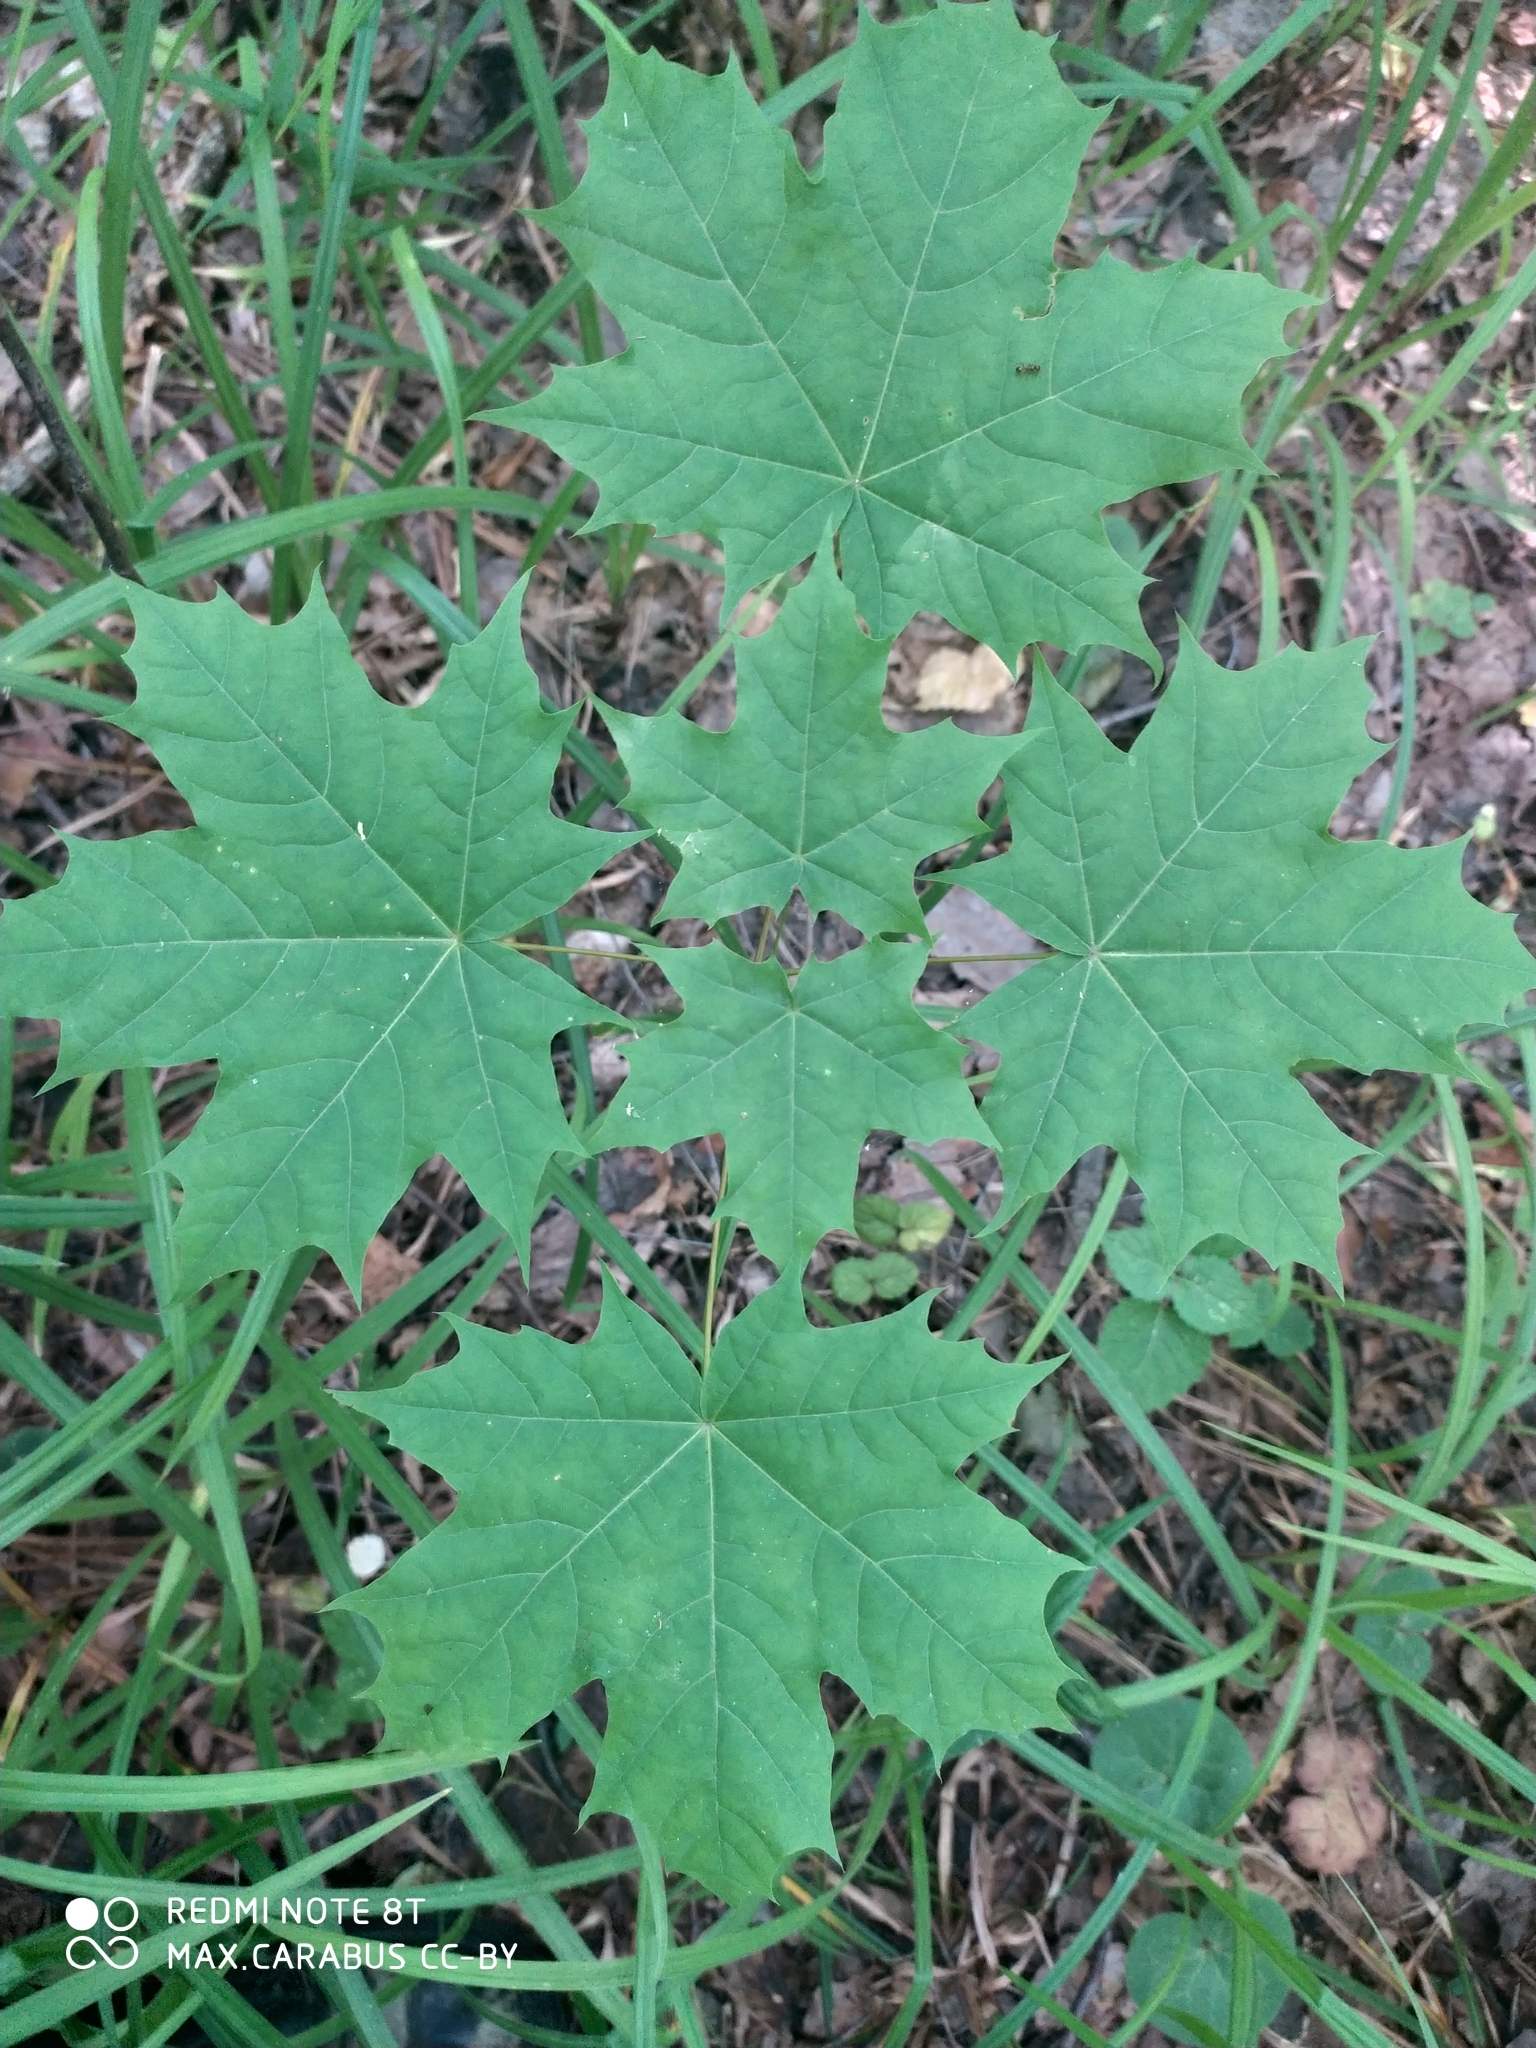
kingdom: Plantae
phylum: Tracheophyta
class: Magnoliopsida
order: Sapindales
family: Sapindaceae
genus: Acer
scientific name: Acer platanoides
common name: Norway maple
